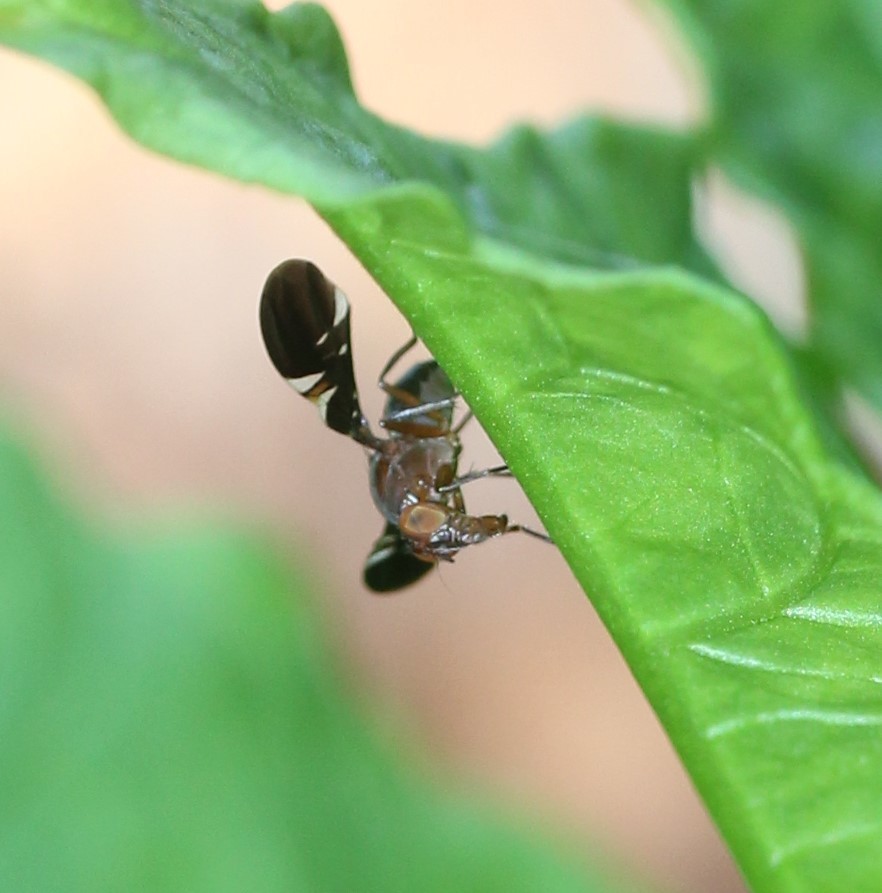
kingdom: Animalia
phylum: Arthropoda
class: Insecta
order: Diptera
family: Ulidiidae
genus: Delphinia
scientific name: Delphinia picta
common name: Common picture-winged fly
